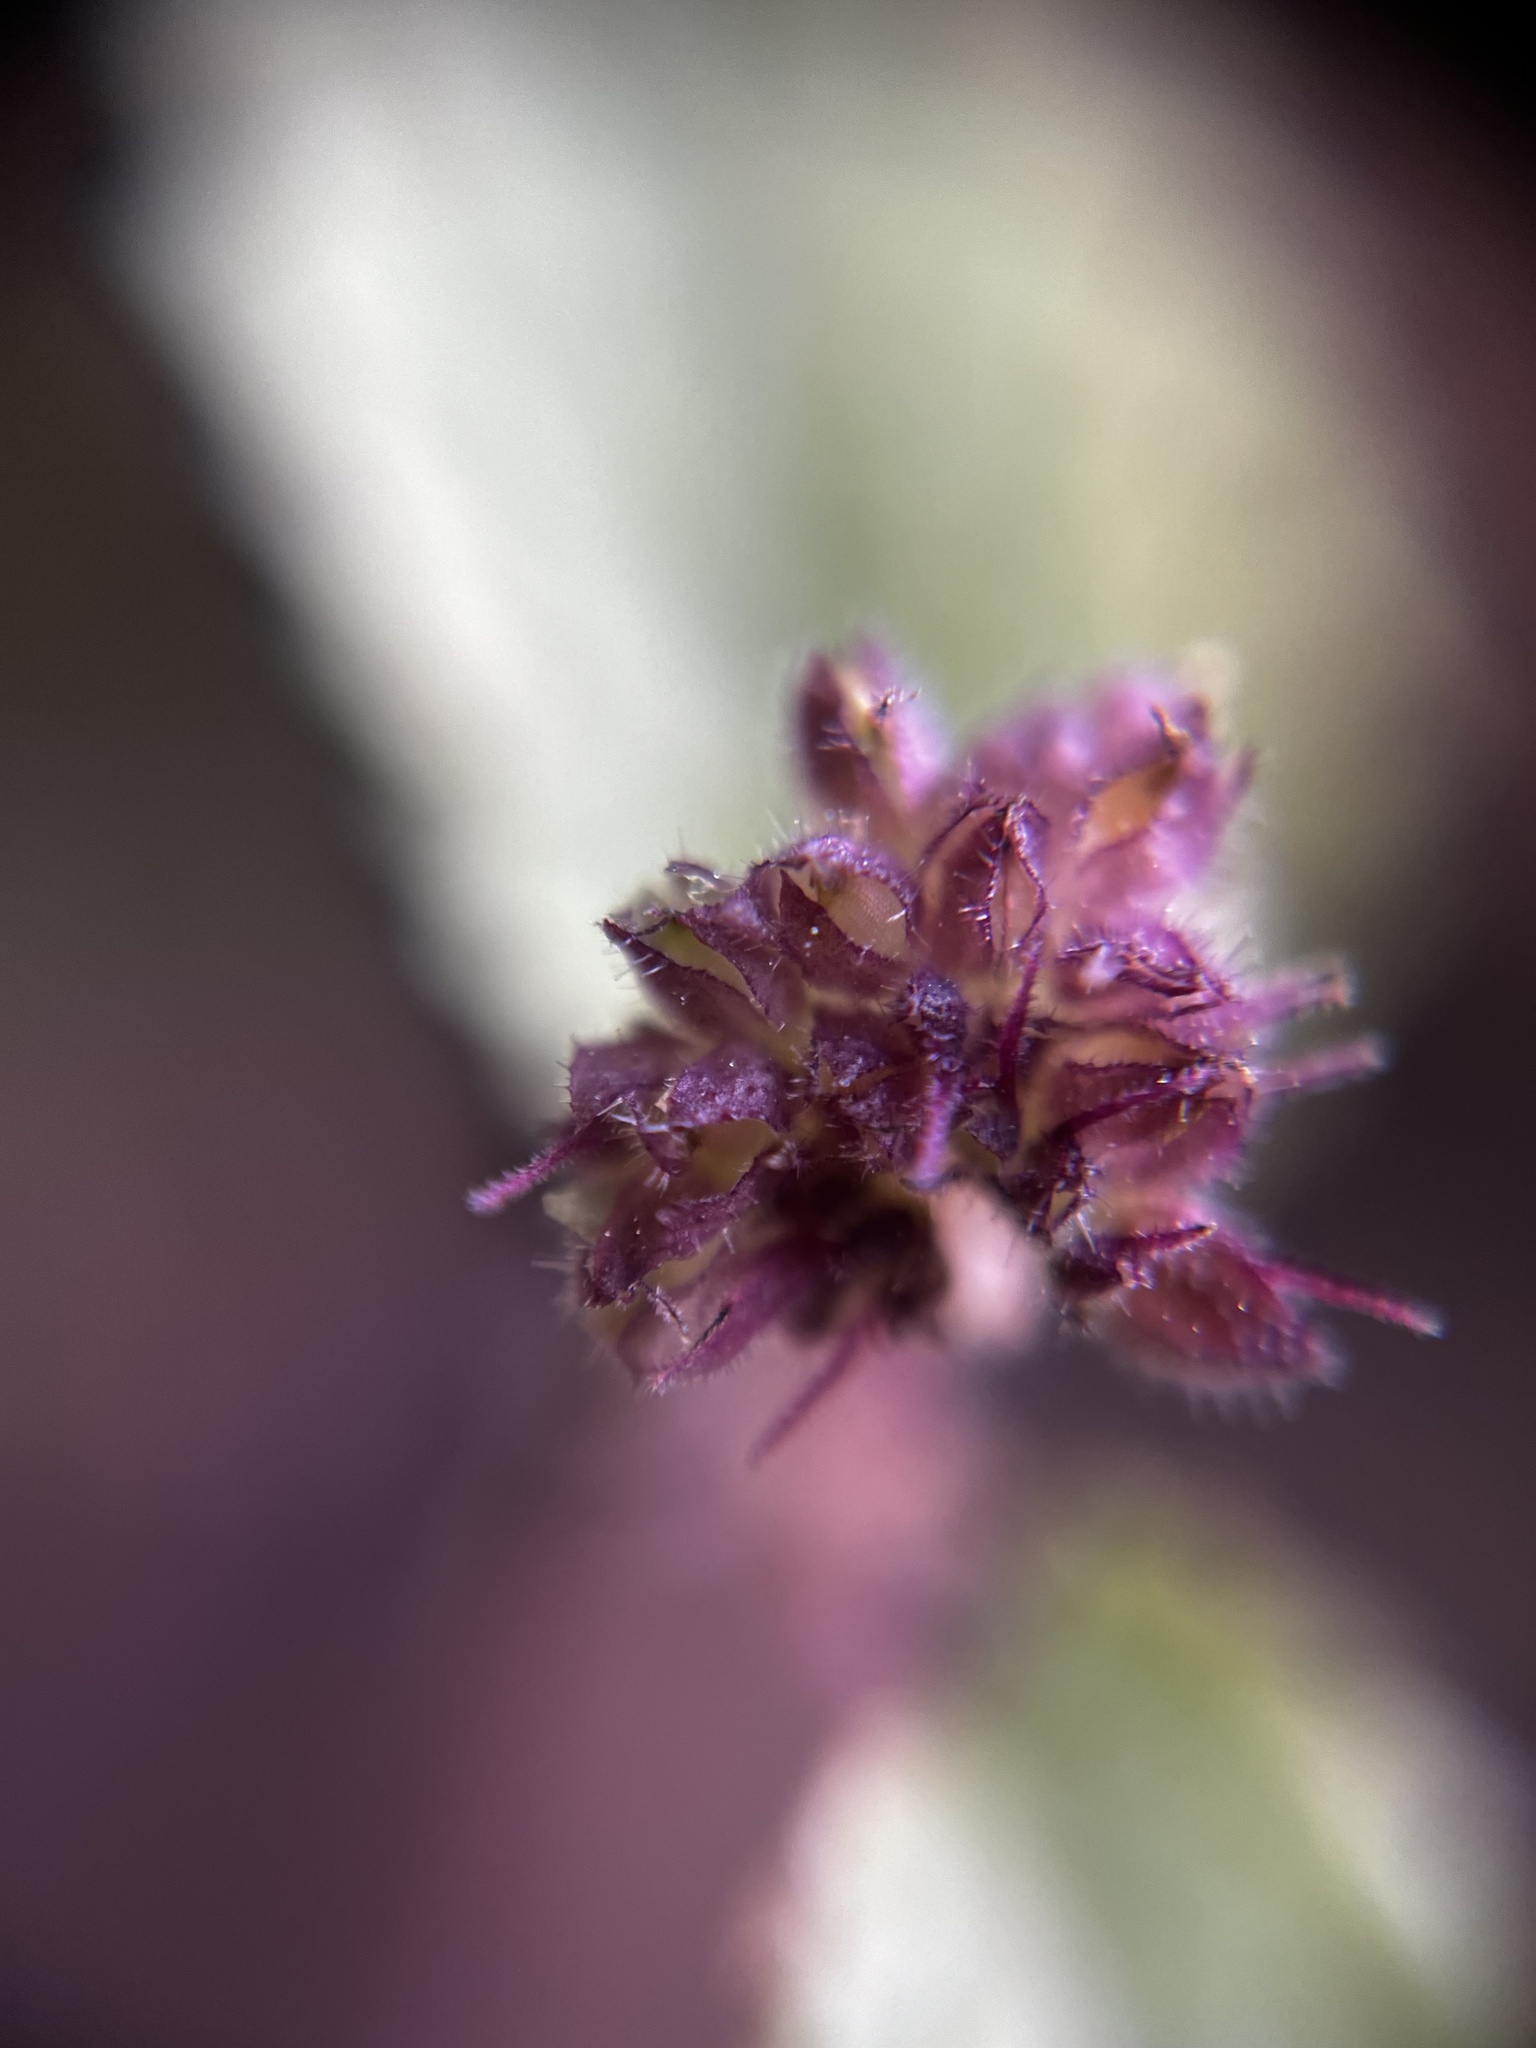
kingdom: Plantae
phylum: Tracheophyta
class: Magnoliopsida
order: Rosales
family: Moraceae
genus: Fatoua
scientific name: Fatoua villosa
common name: Hairy crabweed
